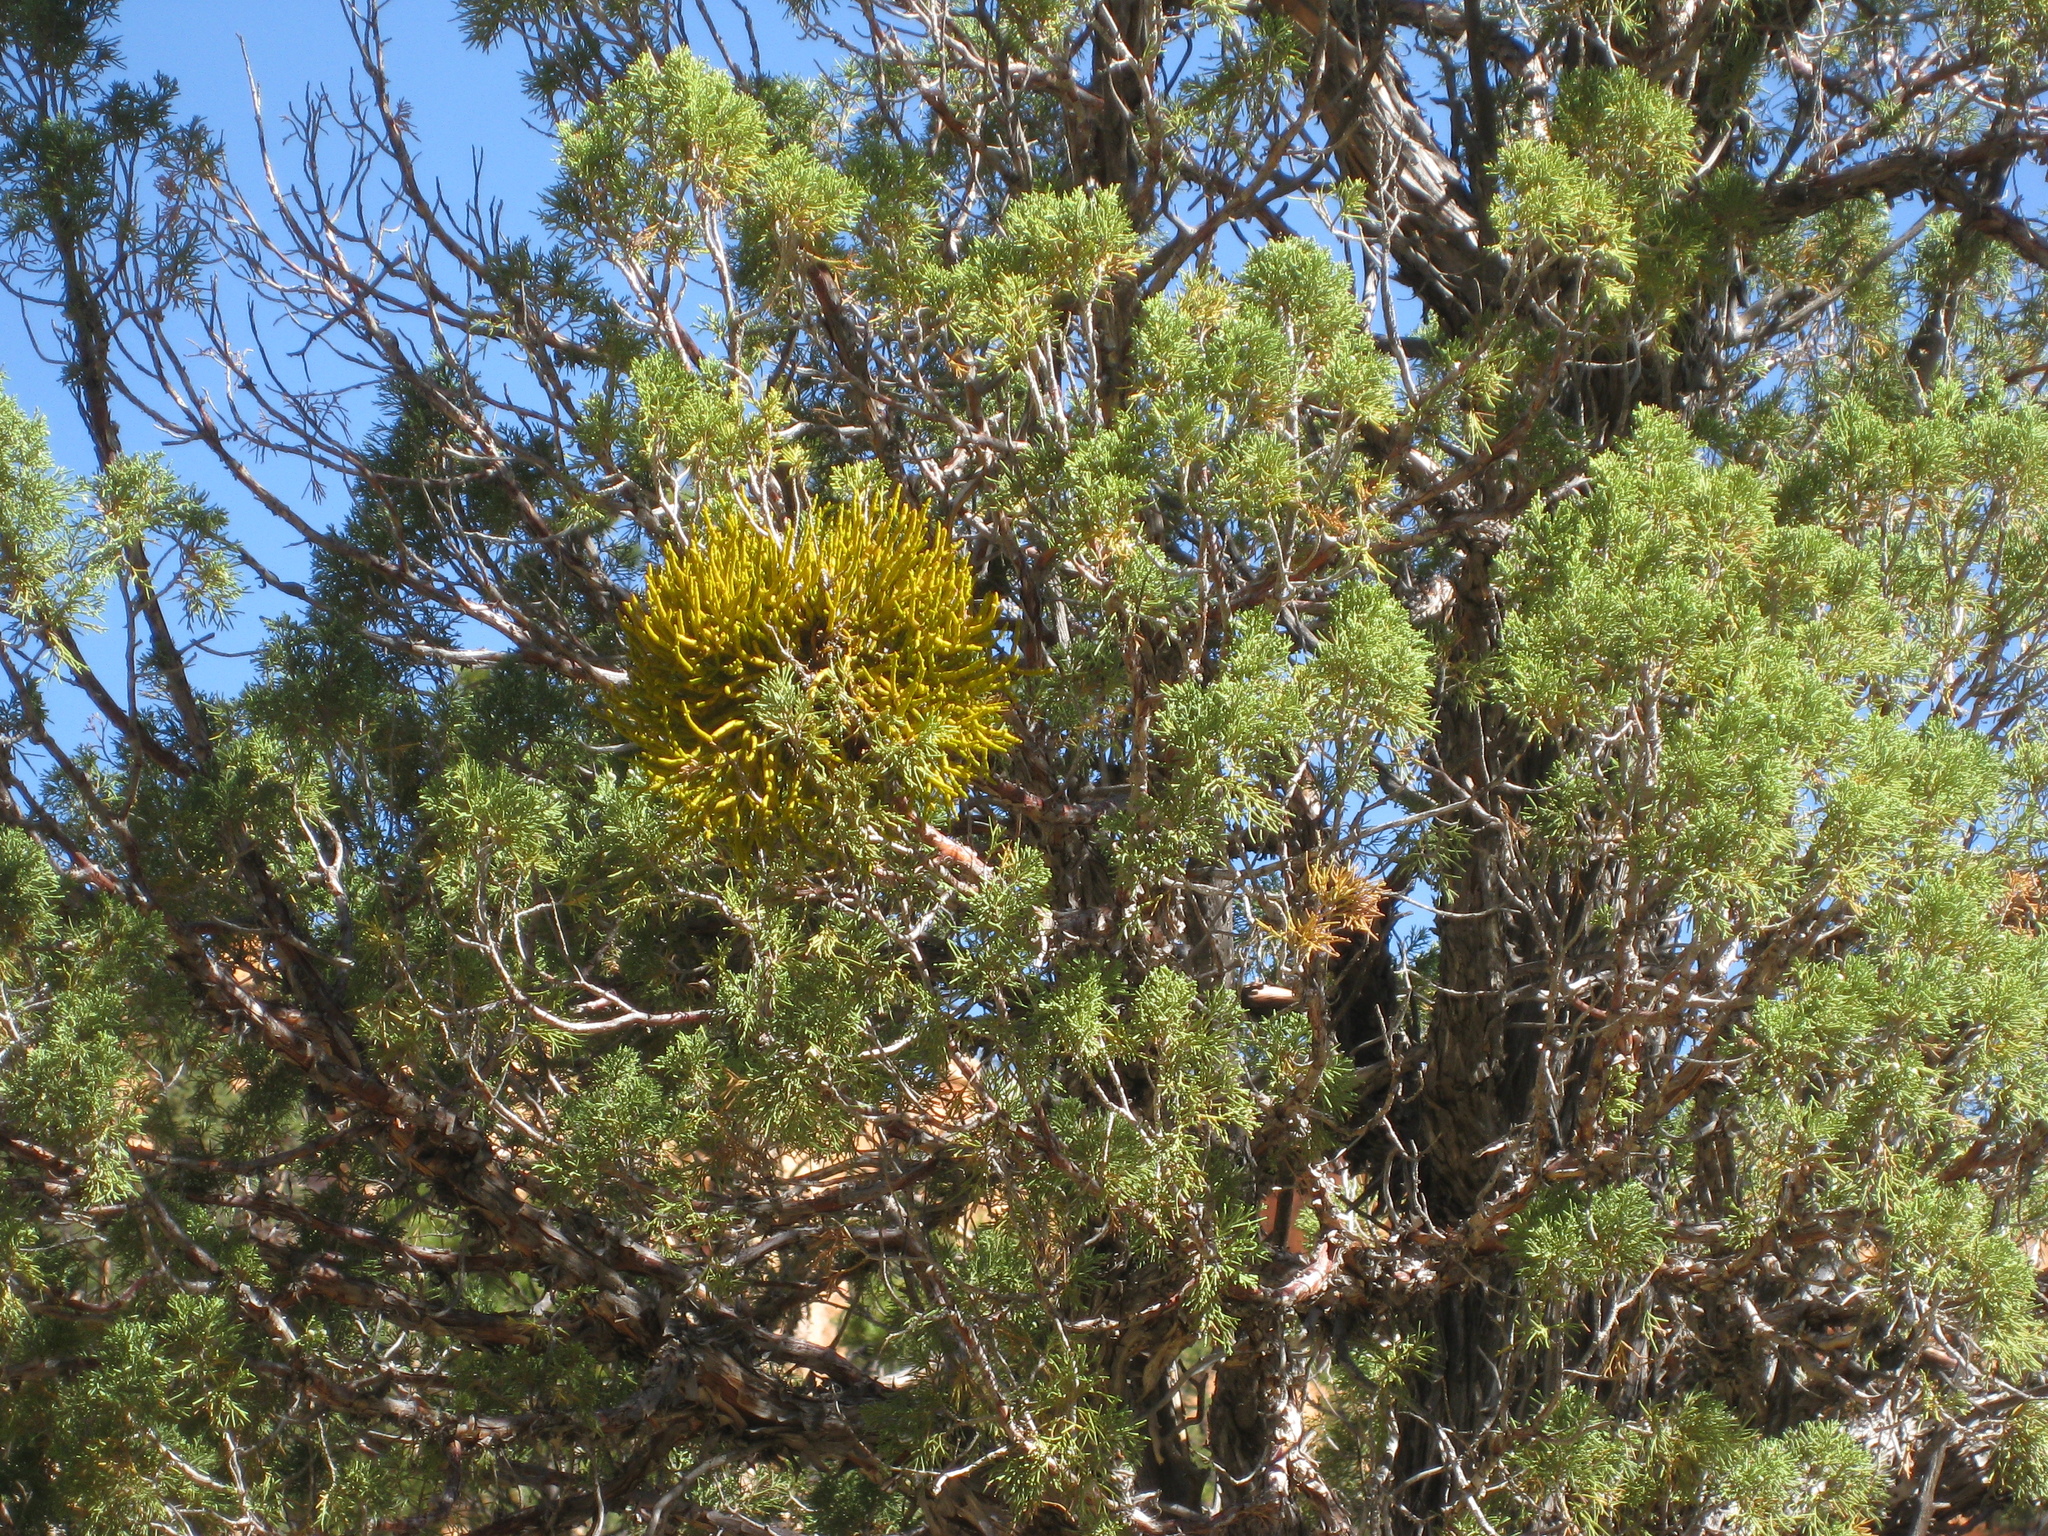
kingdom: Plantae
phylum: Tracheophyta
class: Magnoliopsida
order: Santalales
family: Viscaceae
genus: Phoradendron
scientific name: Phoradendron juniperinum
